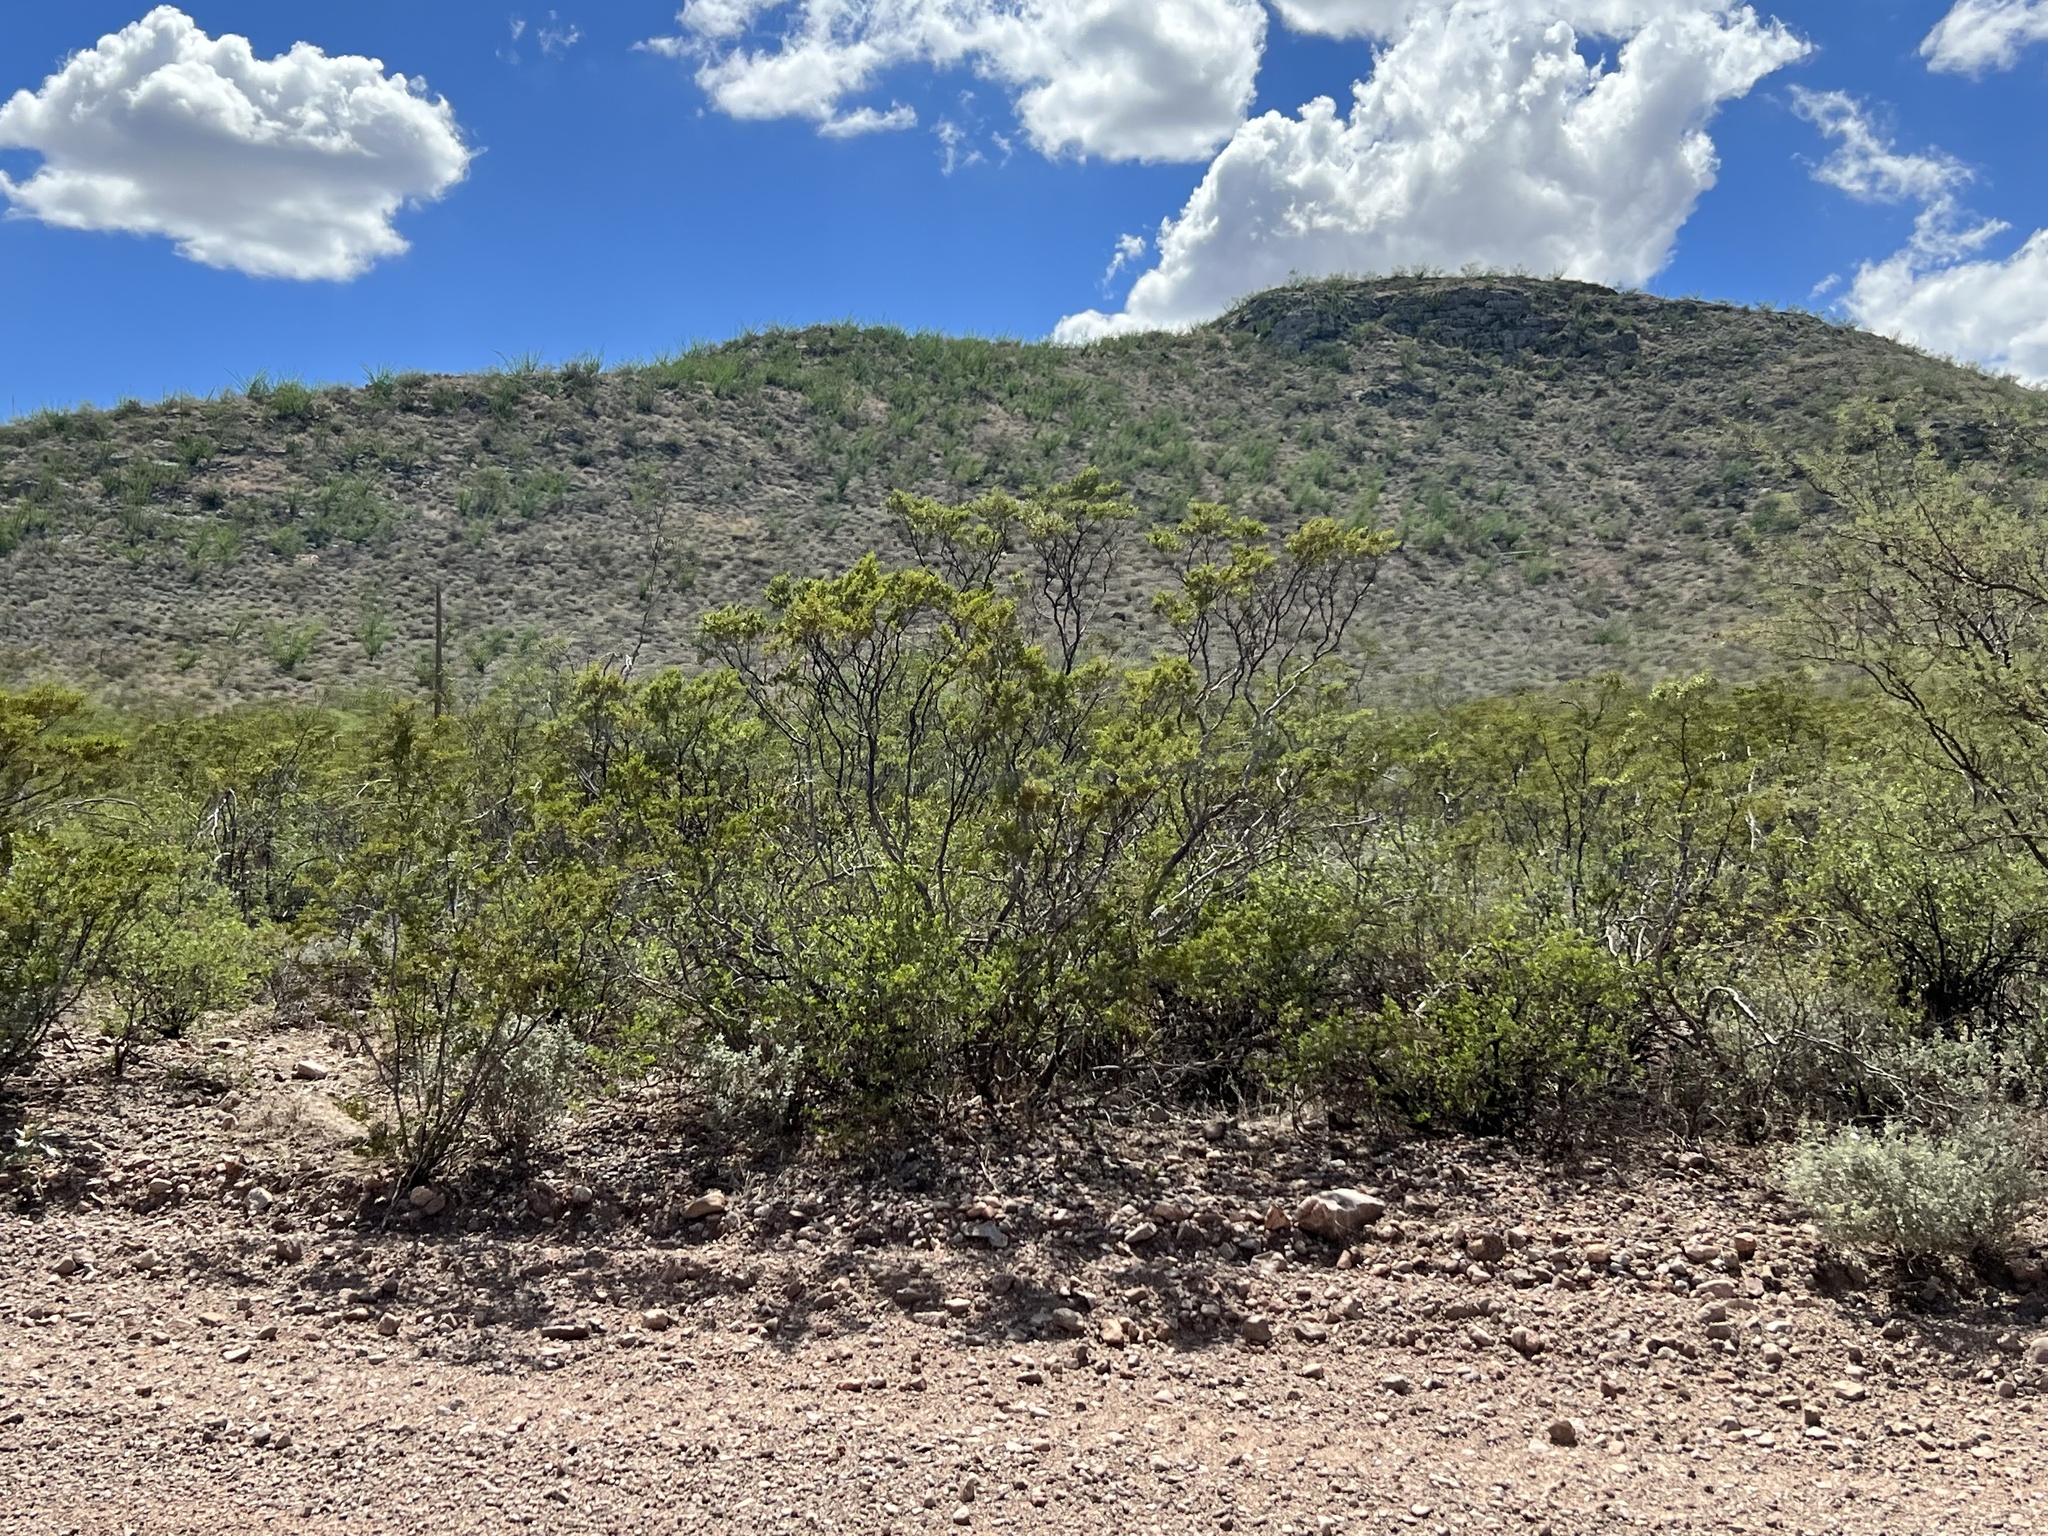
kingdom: Plantae
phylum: Tracheophyta
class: Magnoliopsida
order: Zygophyllales
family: Zygophyllaceae
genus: Larrea
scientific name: Larrea tridentata
